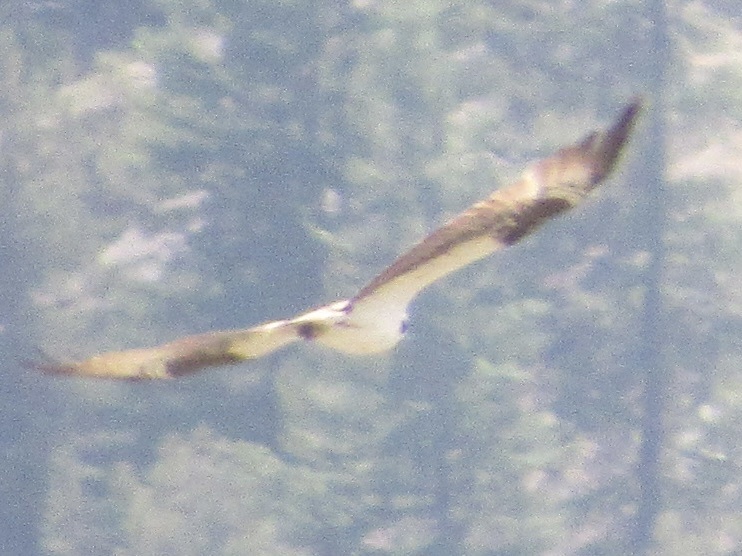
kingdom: Animalia
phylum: Chordata
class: Aves
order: Accipitriformes
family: Pandionidae
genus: Pandion
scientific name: Pandion haliaetus
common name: Osprey
